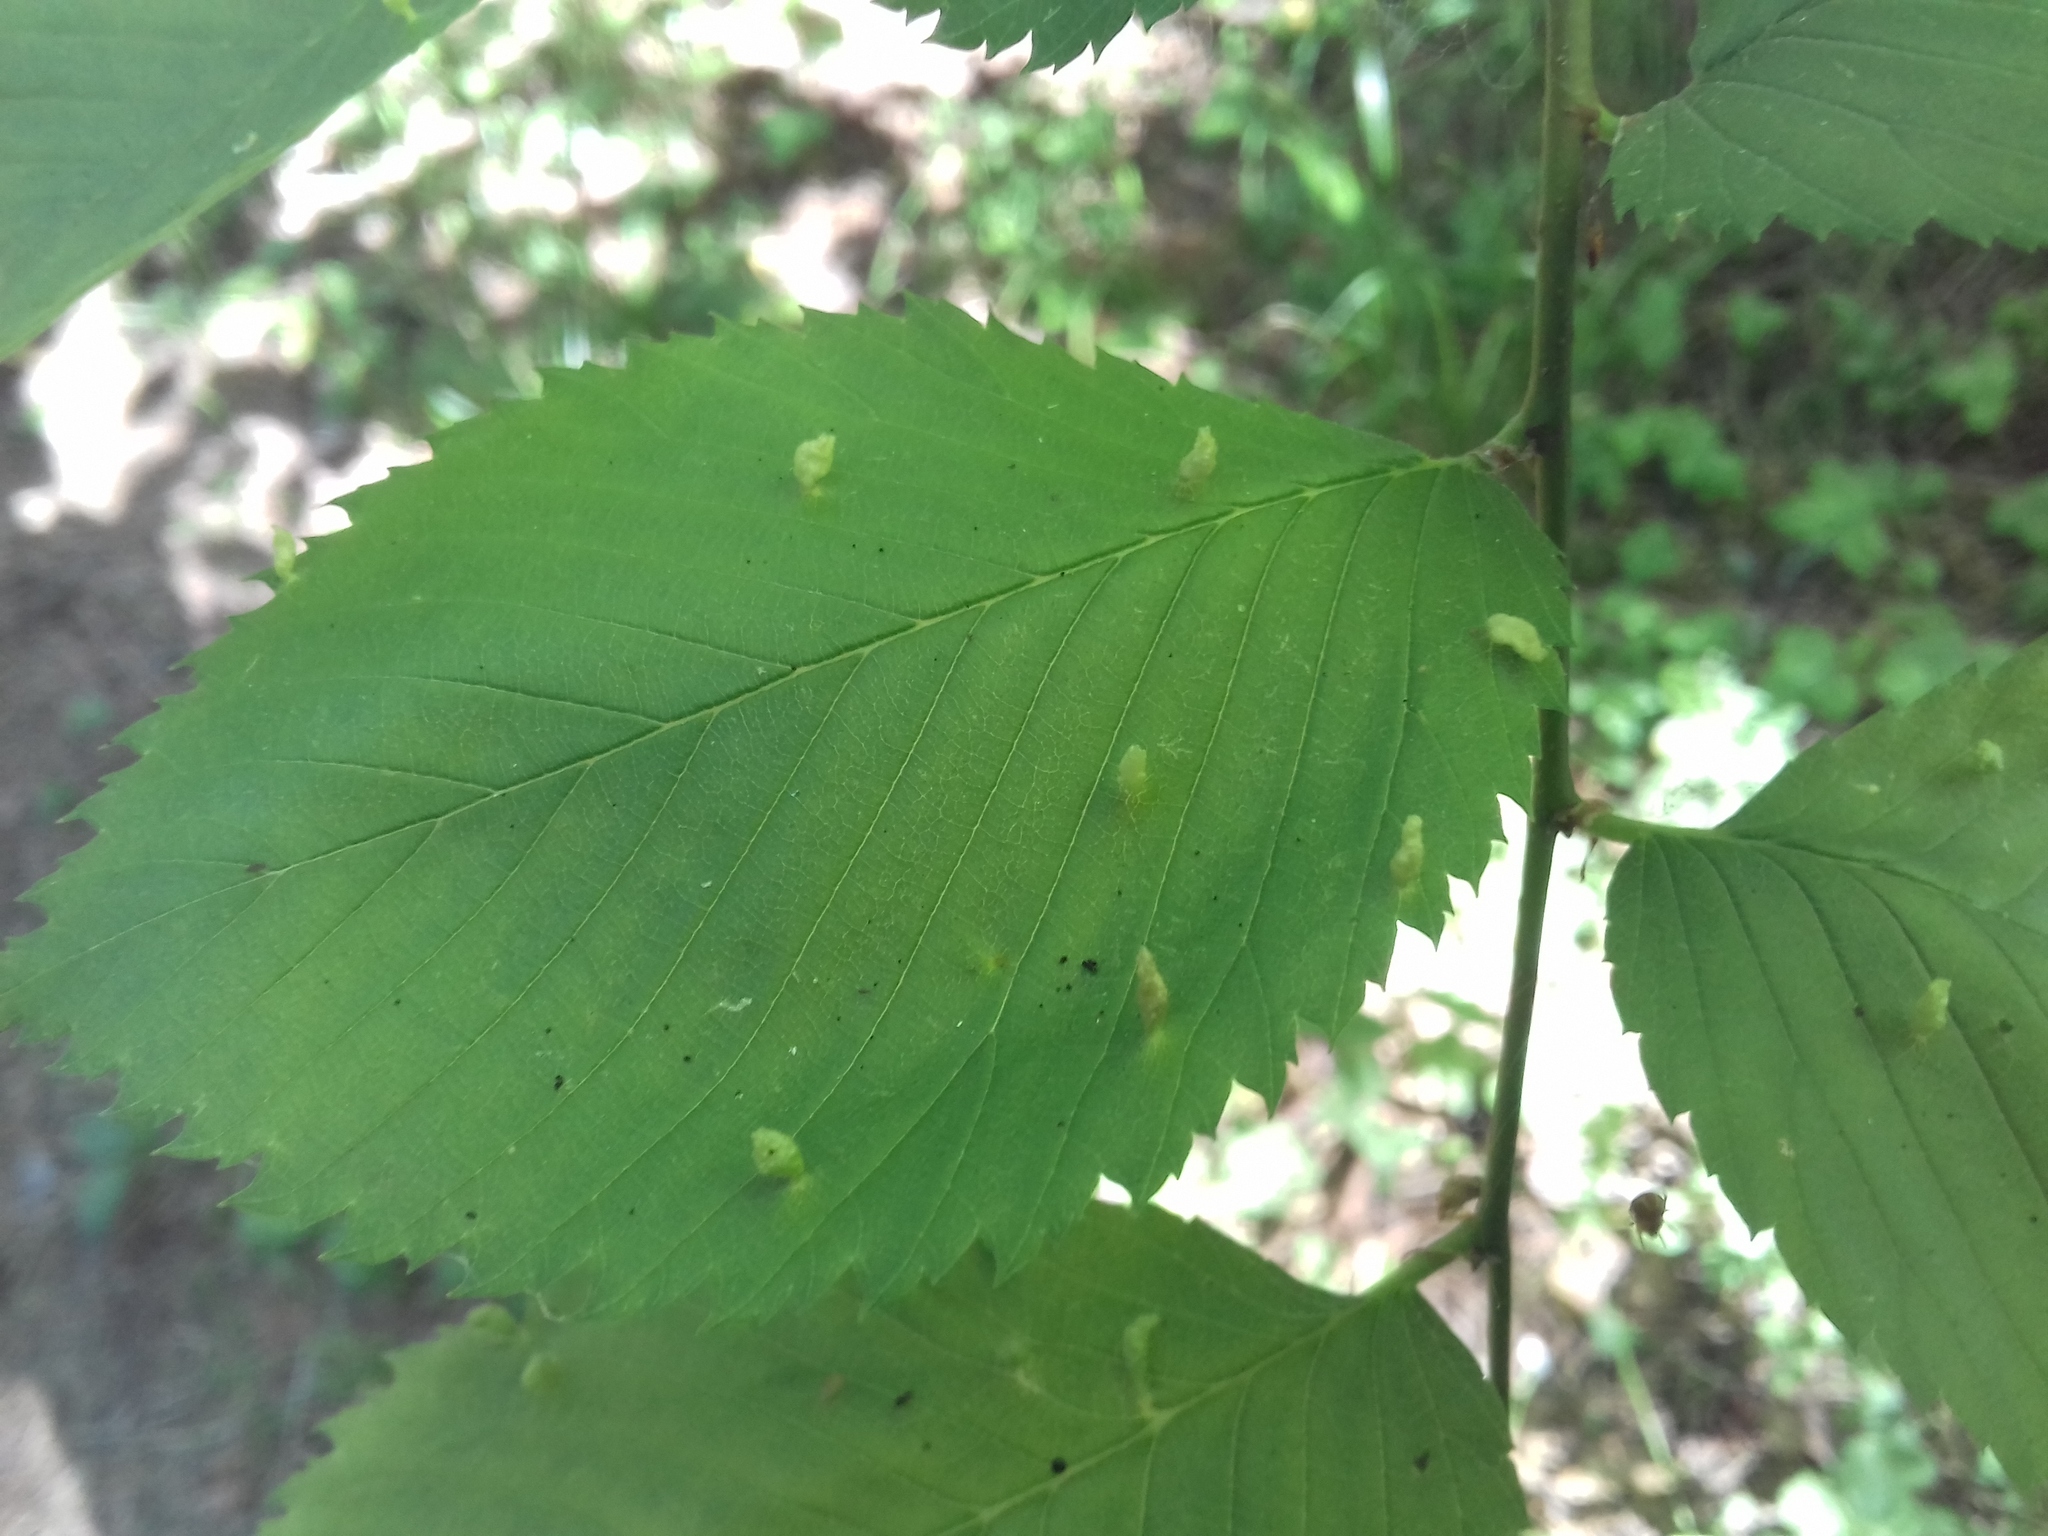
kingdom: Animalia
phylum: Arthropoda
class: Arachnida
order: Trombidiformes
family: Eriophyidae
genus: Aceria
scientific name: Aceria brevipunctata
